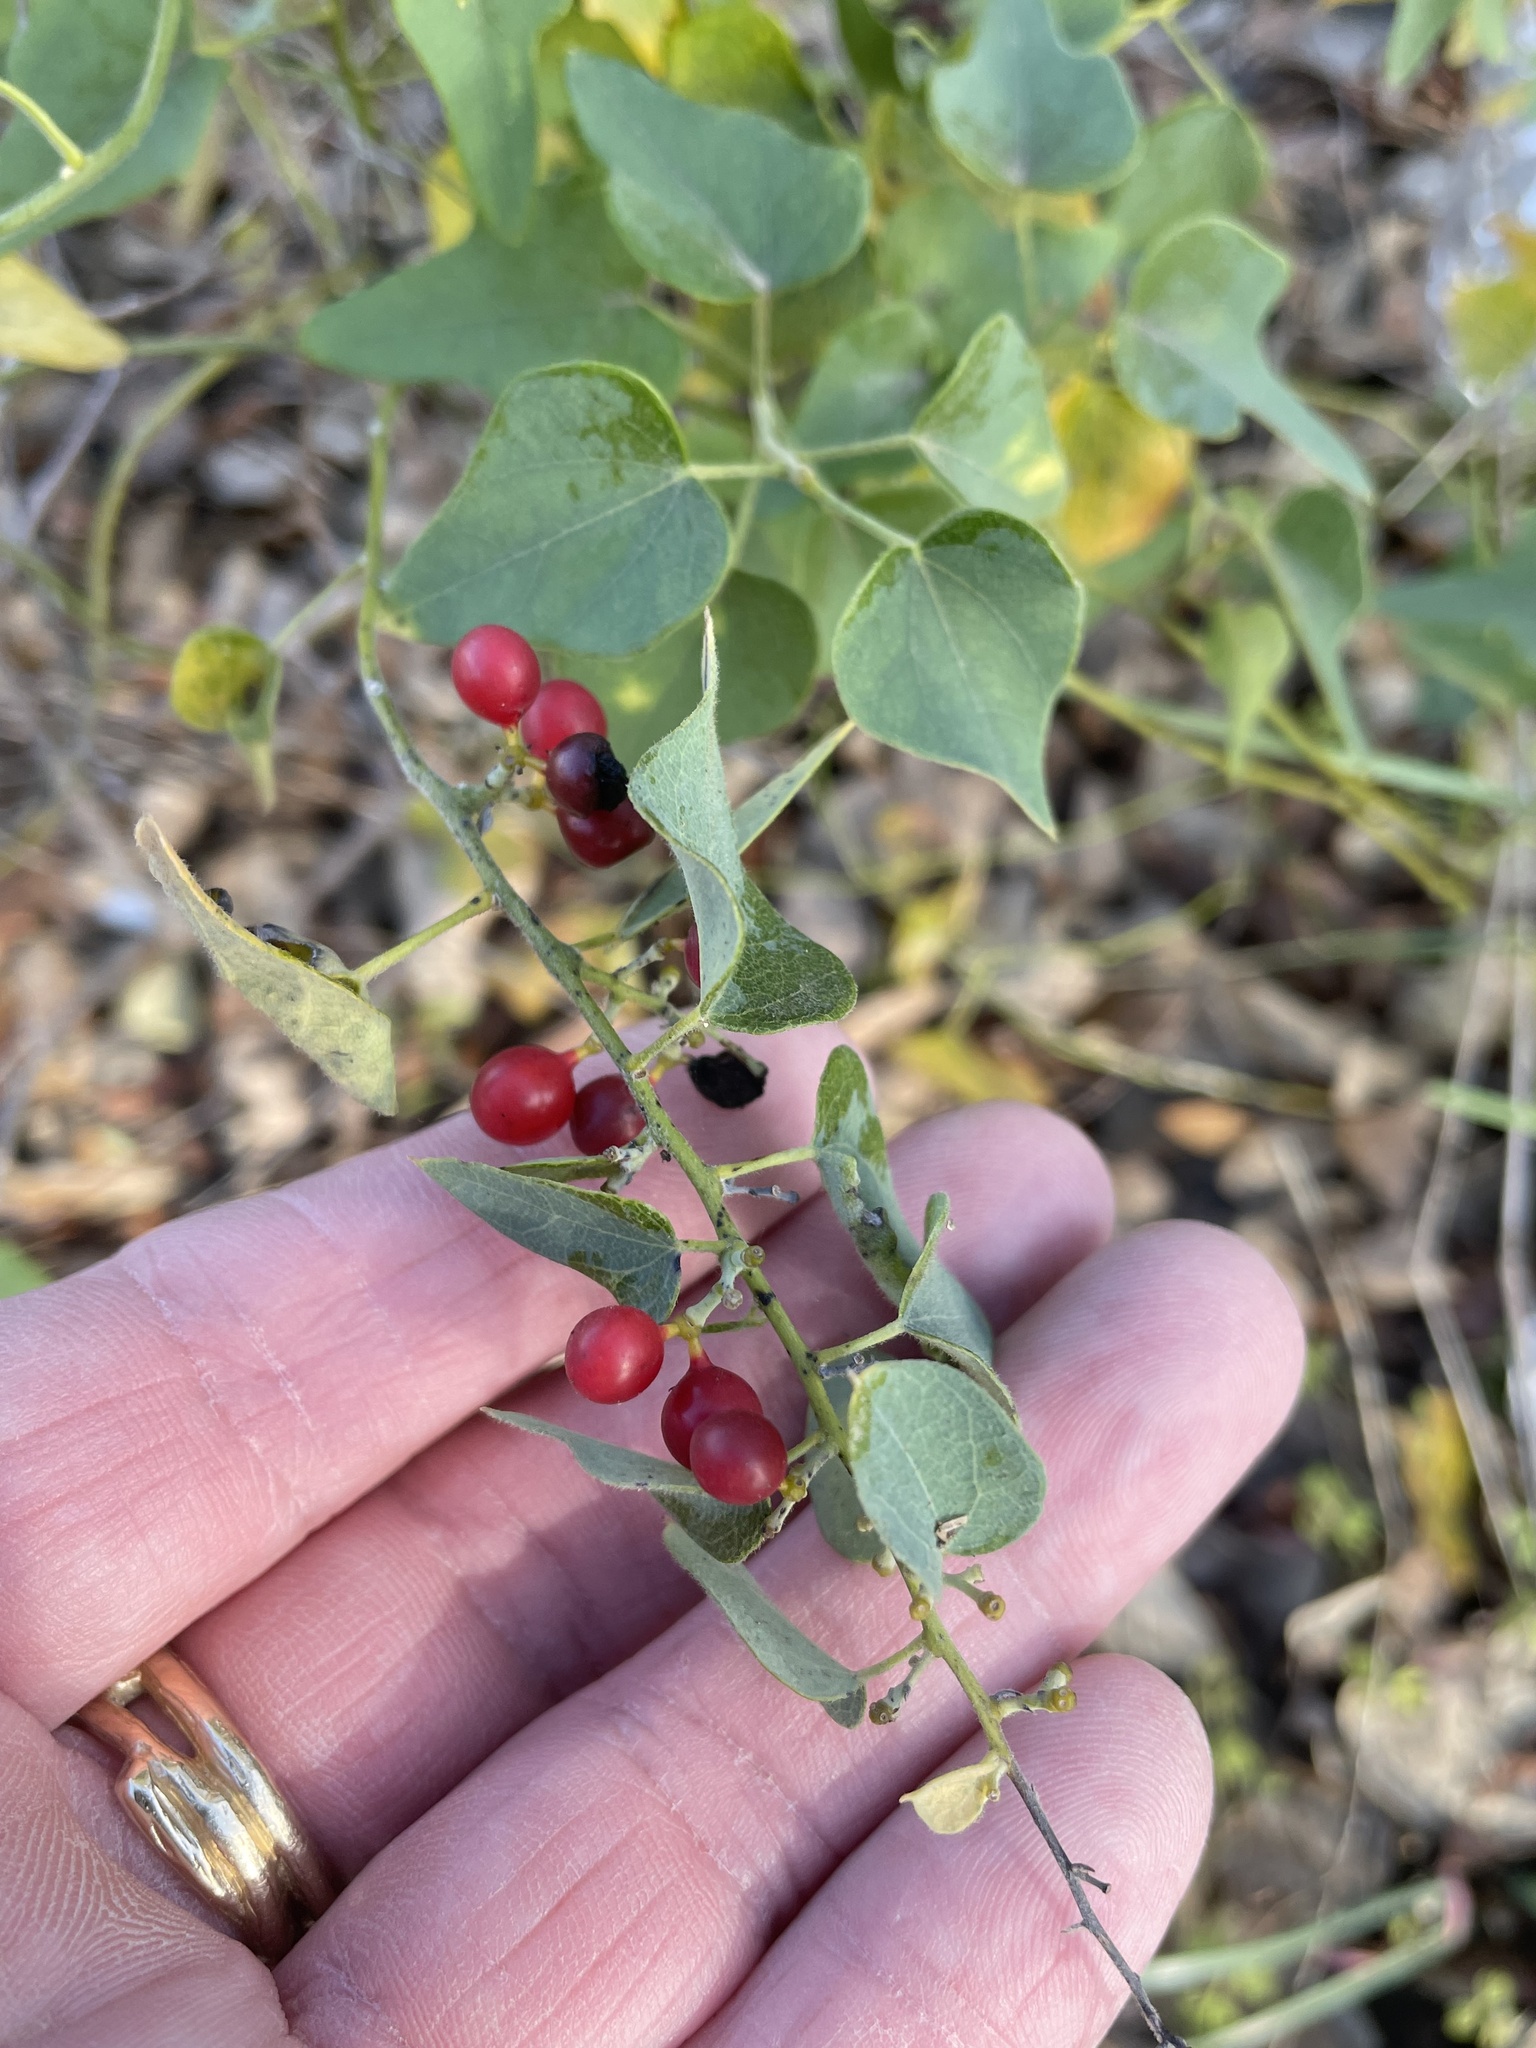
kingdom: Plantae
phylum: Tracheophyta
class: Magnoliopsida
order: Ranunculales
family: Menispermaceae
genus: Cocculus
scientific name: Cocculus carolinus
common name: Carolina moonseed
